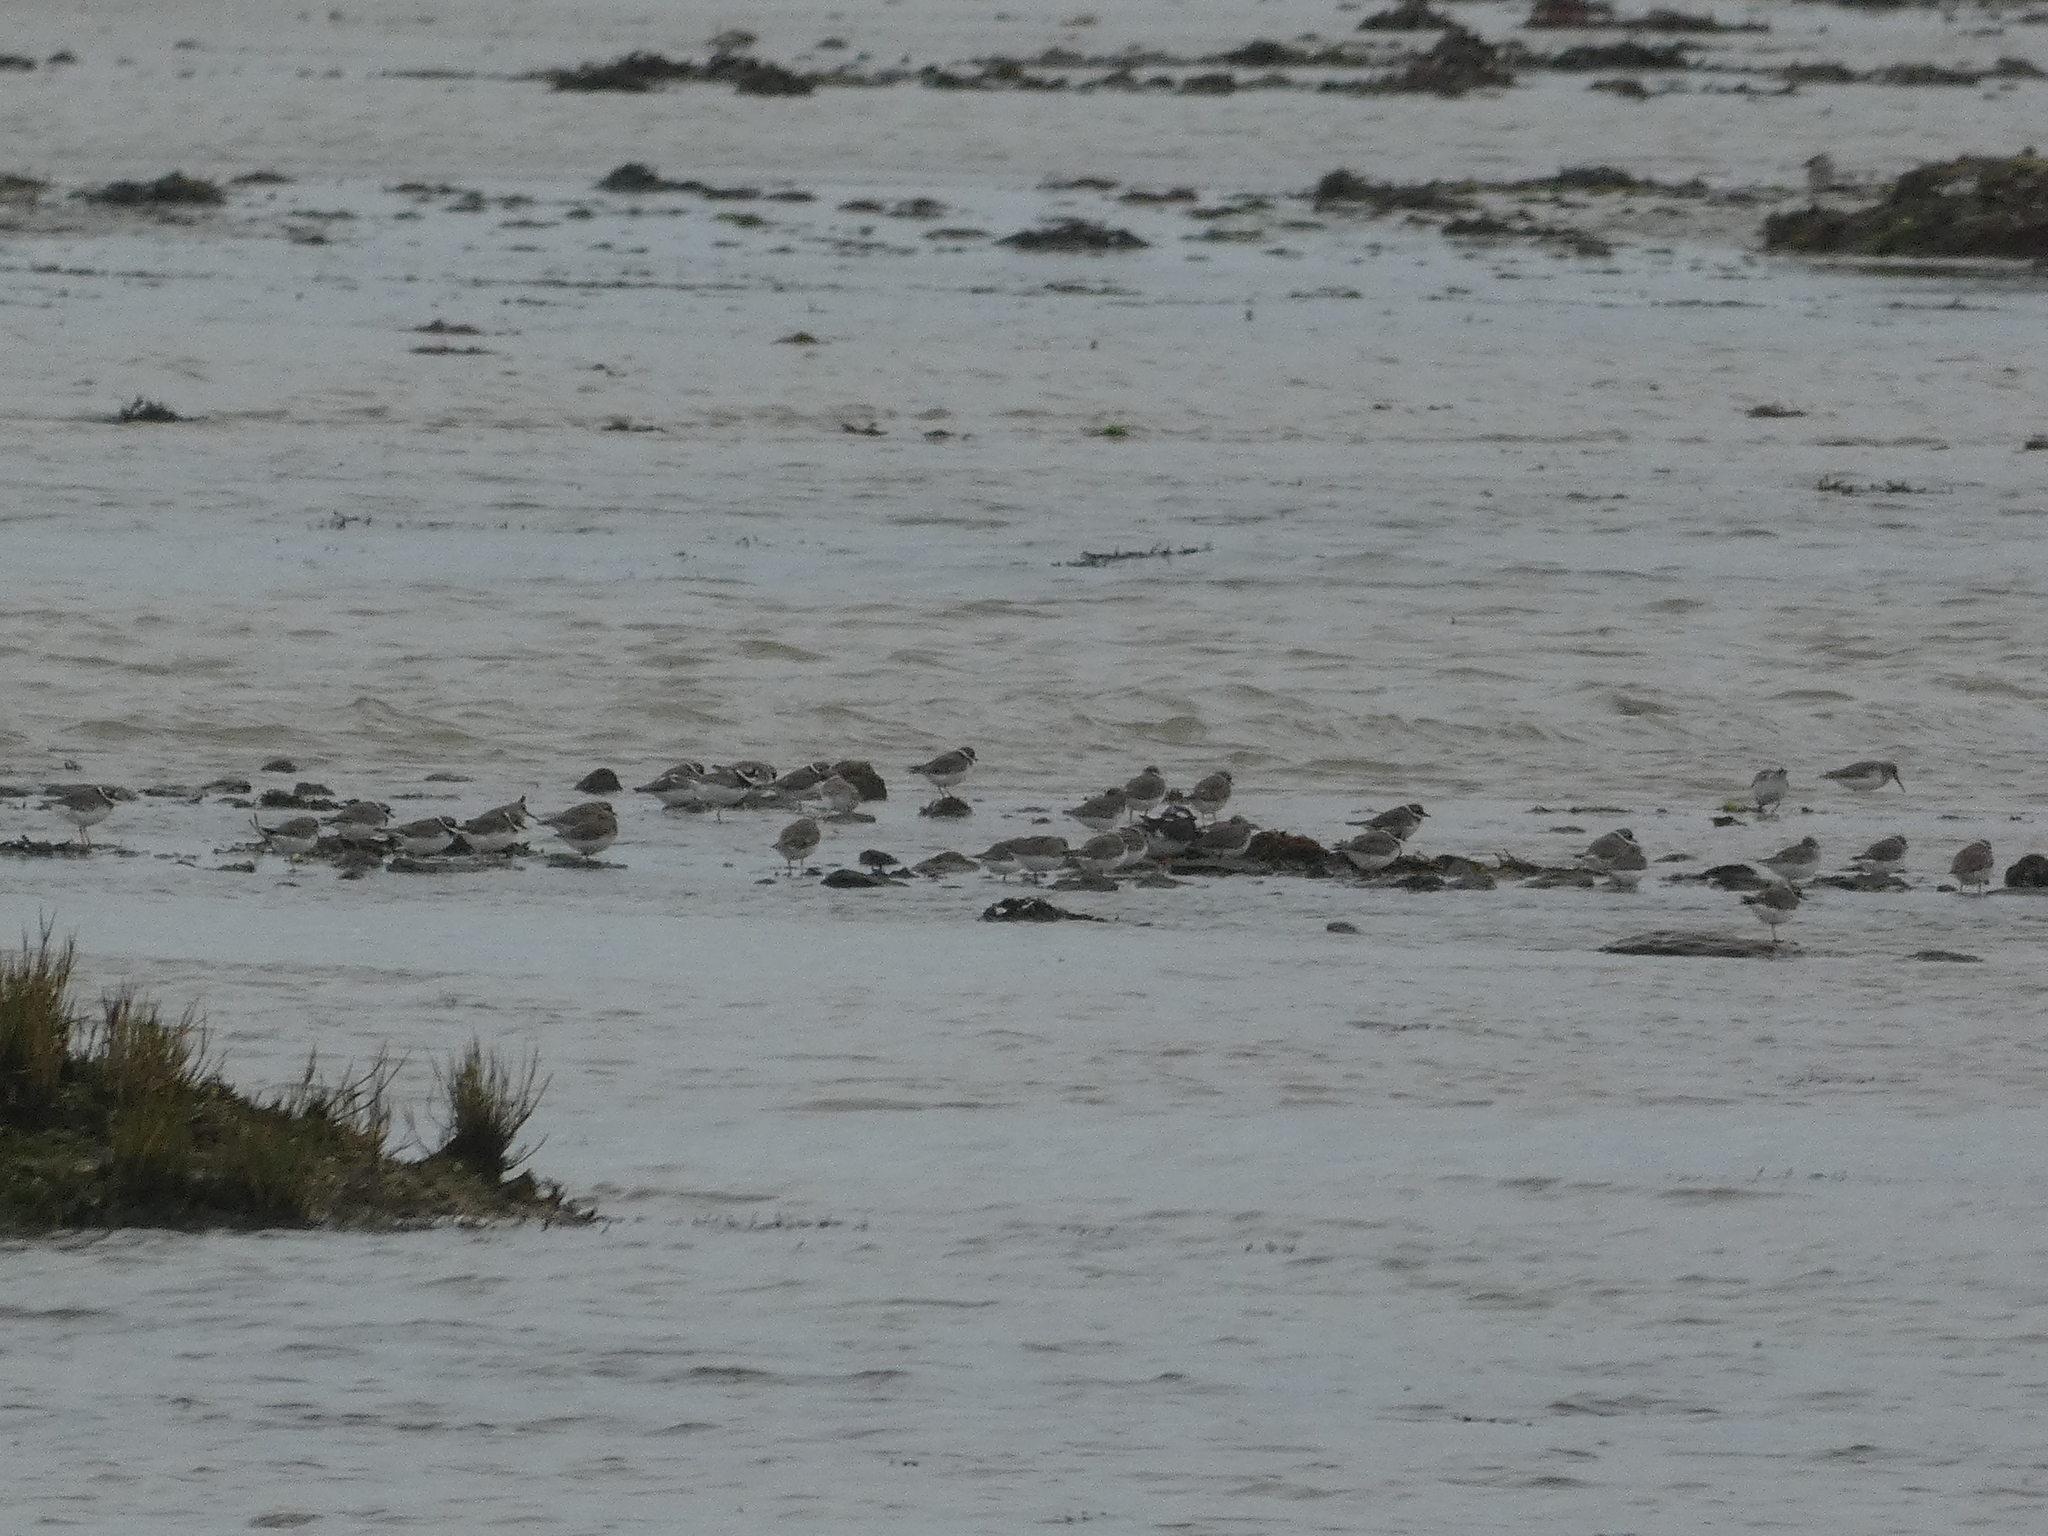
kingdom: Animalia
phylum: Chordata
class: Aves
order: Charadriiformes
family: Charadriidae
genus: Charadrius
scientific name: Charadrius hiaticula
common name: Common ringed plover
